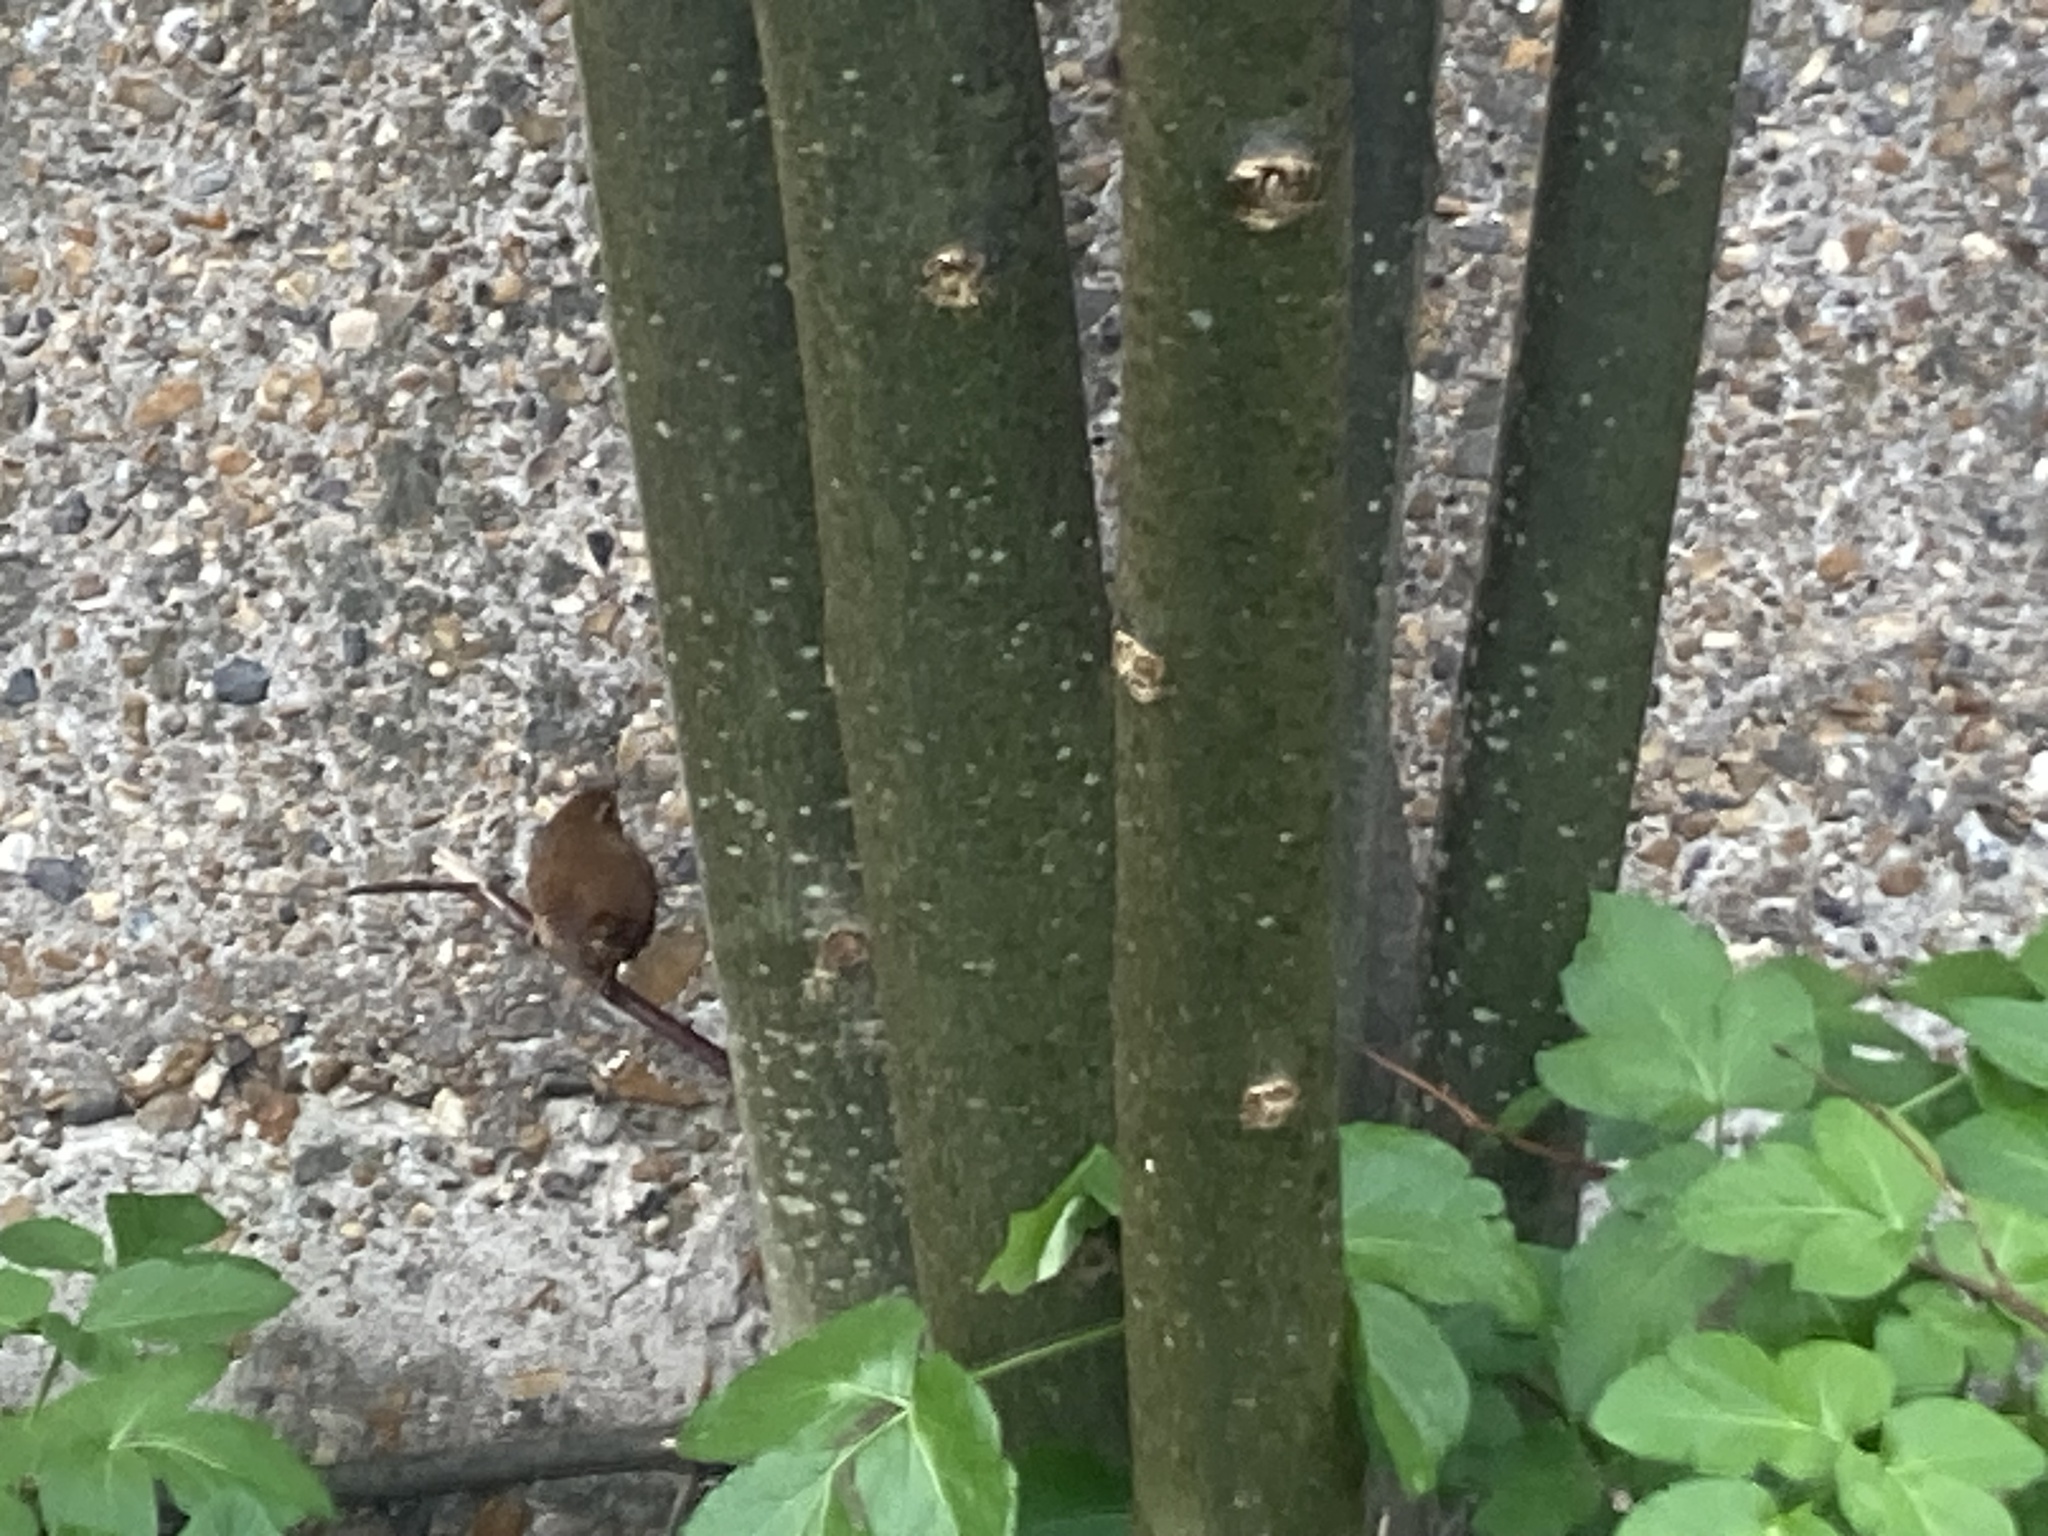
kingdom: Animalia
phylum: Chordata
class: Aves
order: Passeriformes
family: Troglodytidae
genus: Troglodytes
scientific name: Troglodytes troglodytes
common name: Eurasian wren
